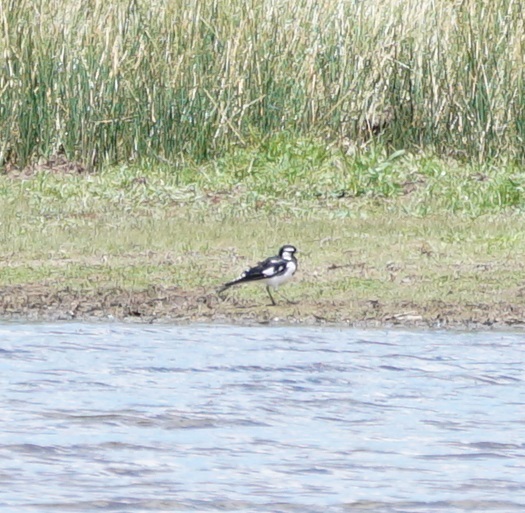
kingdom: Animalia
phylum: Chordata
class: Aves
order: Passeriformes
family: Monarchidae
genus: Grallina
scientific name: Grallina cyanoleuca
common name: Magpie-lark
